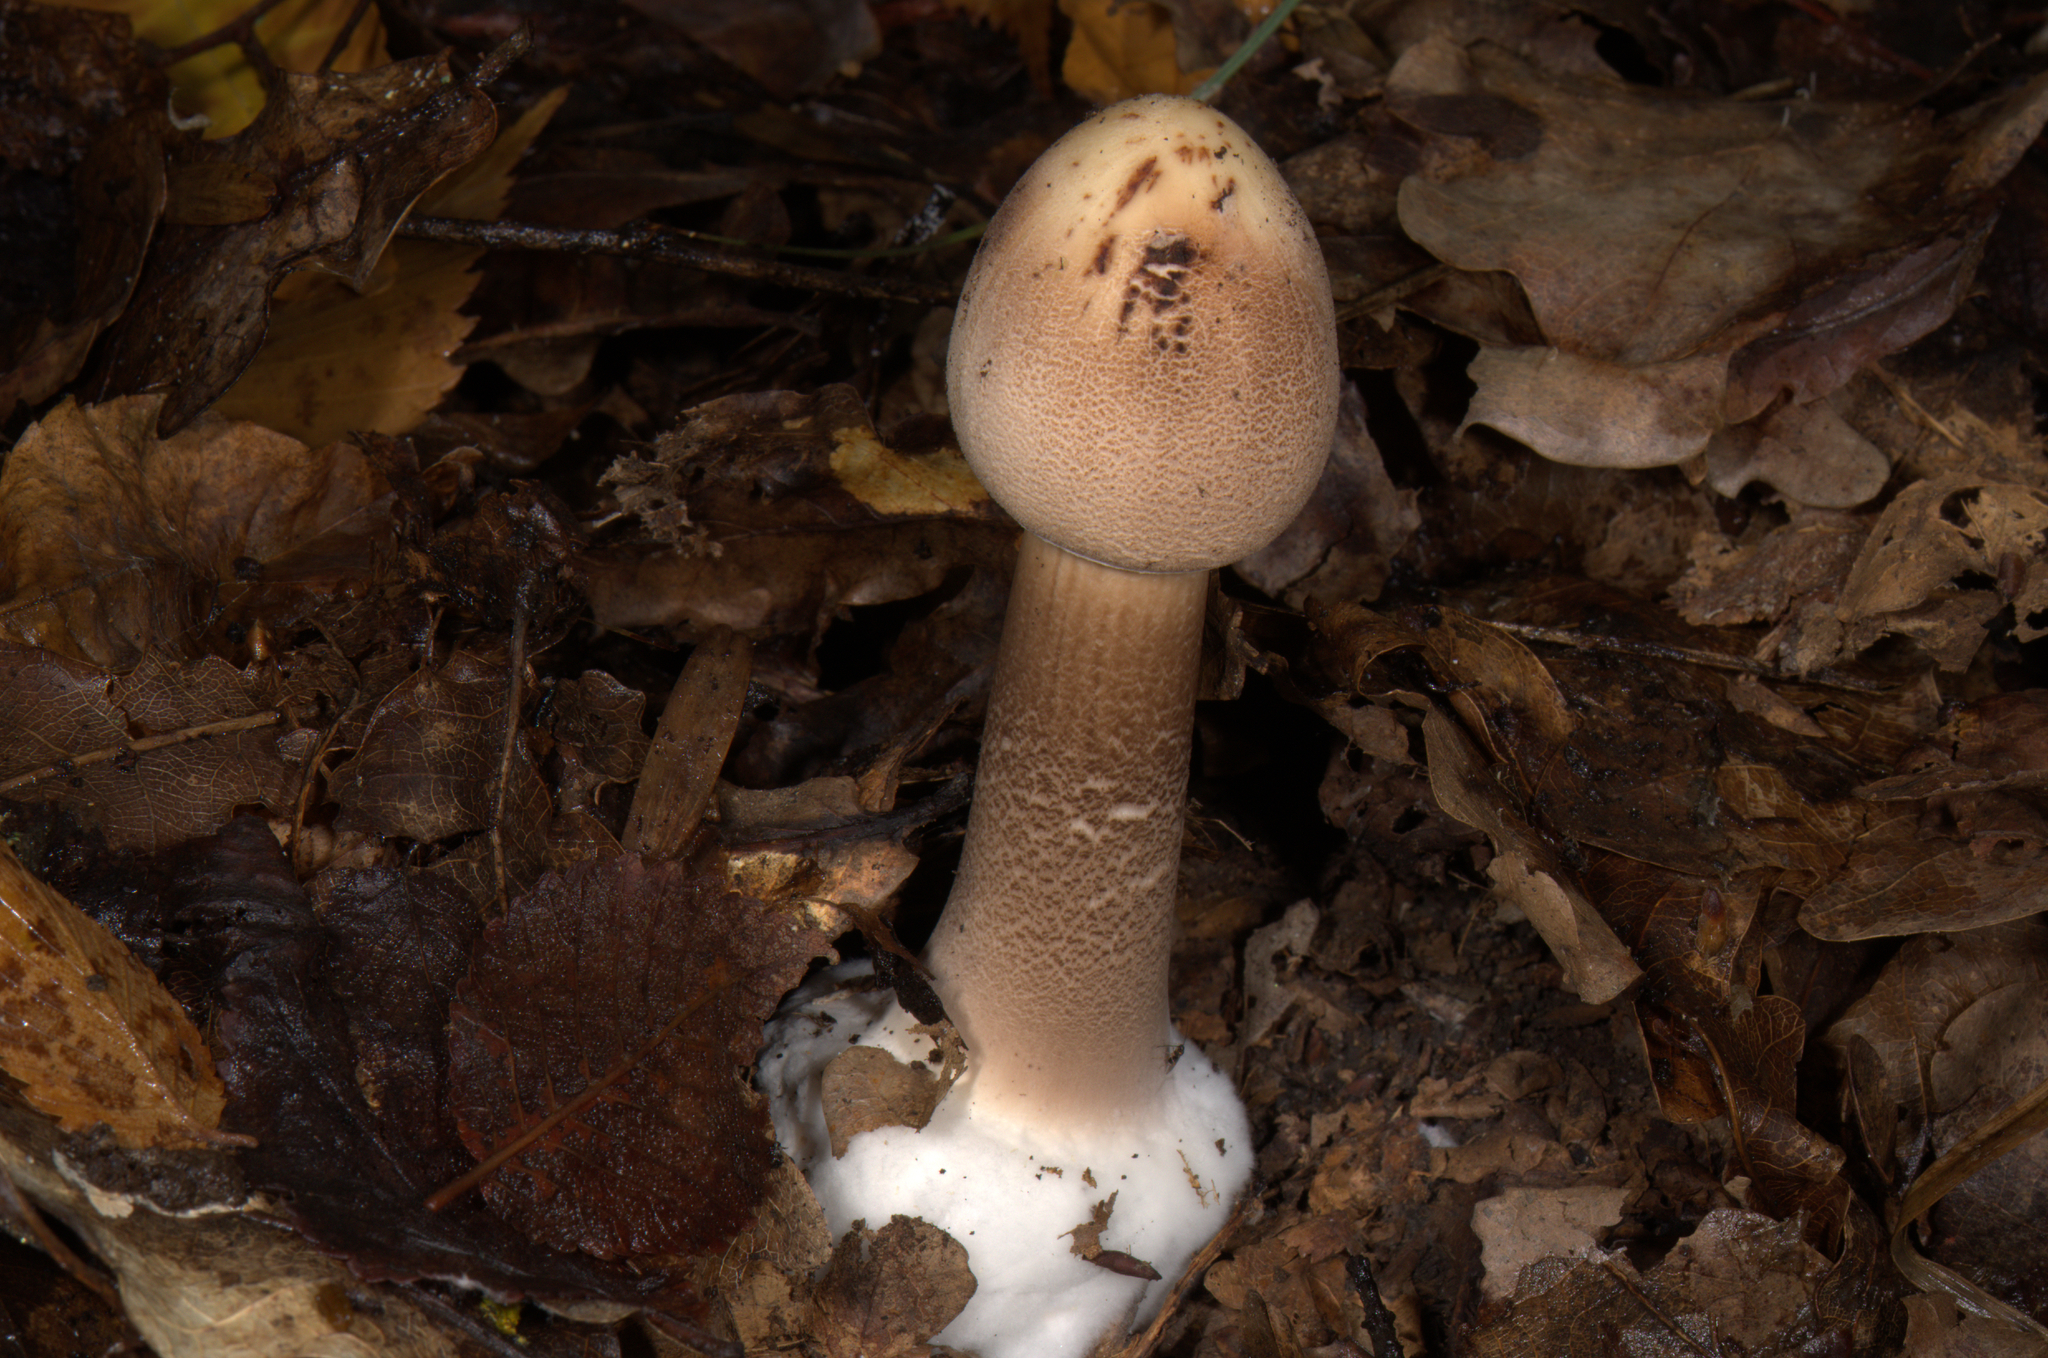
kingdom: Fungi
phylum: Basidiomycota
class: Agaricomycetes
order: Agaricales
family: Agaricaceae
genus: Macrolepiota
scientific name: Macrolepiota procera
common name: Parasol
